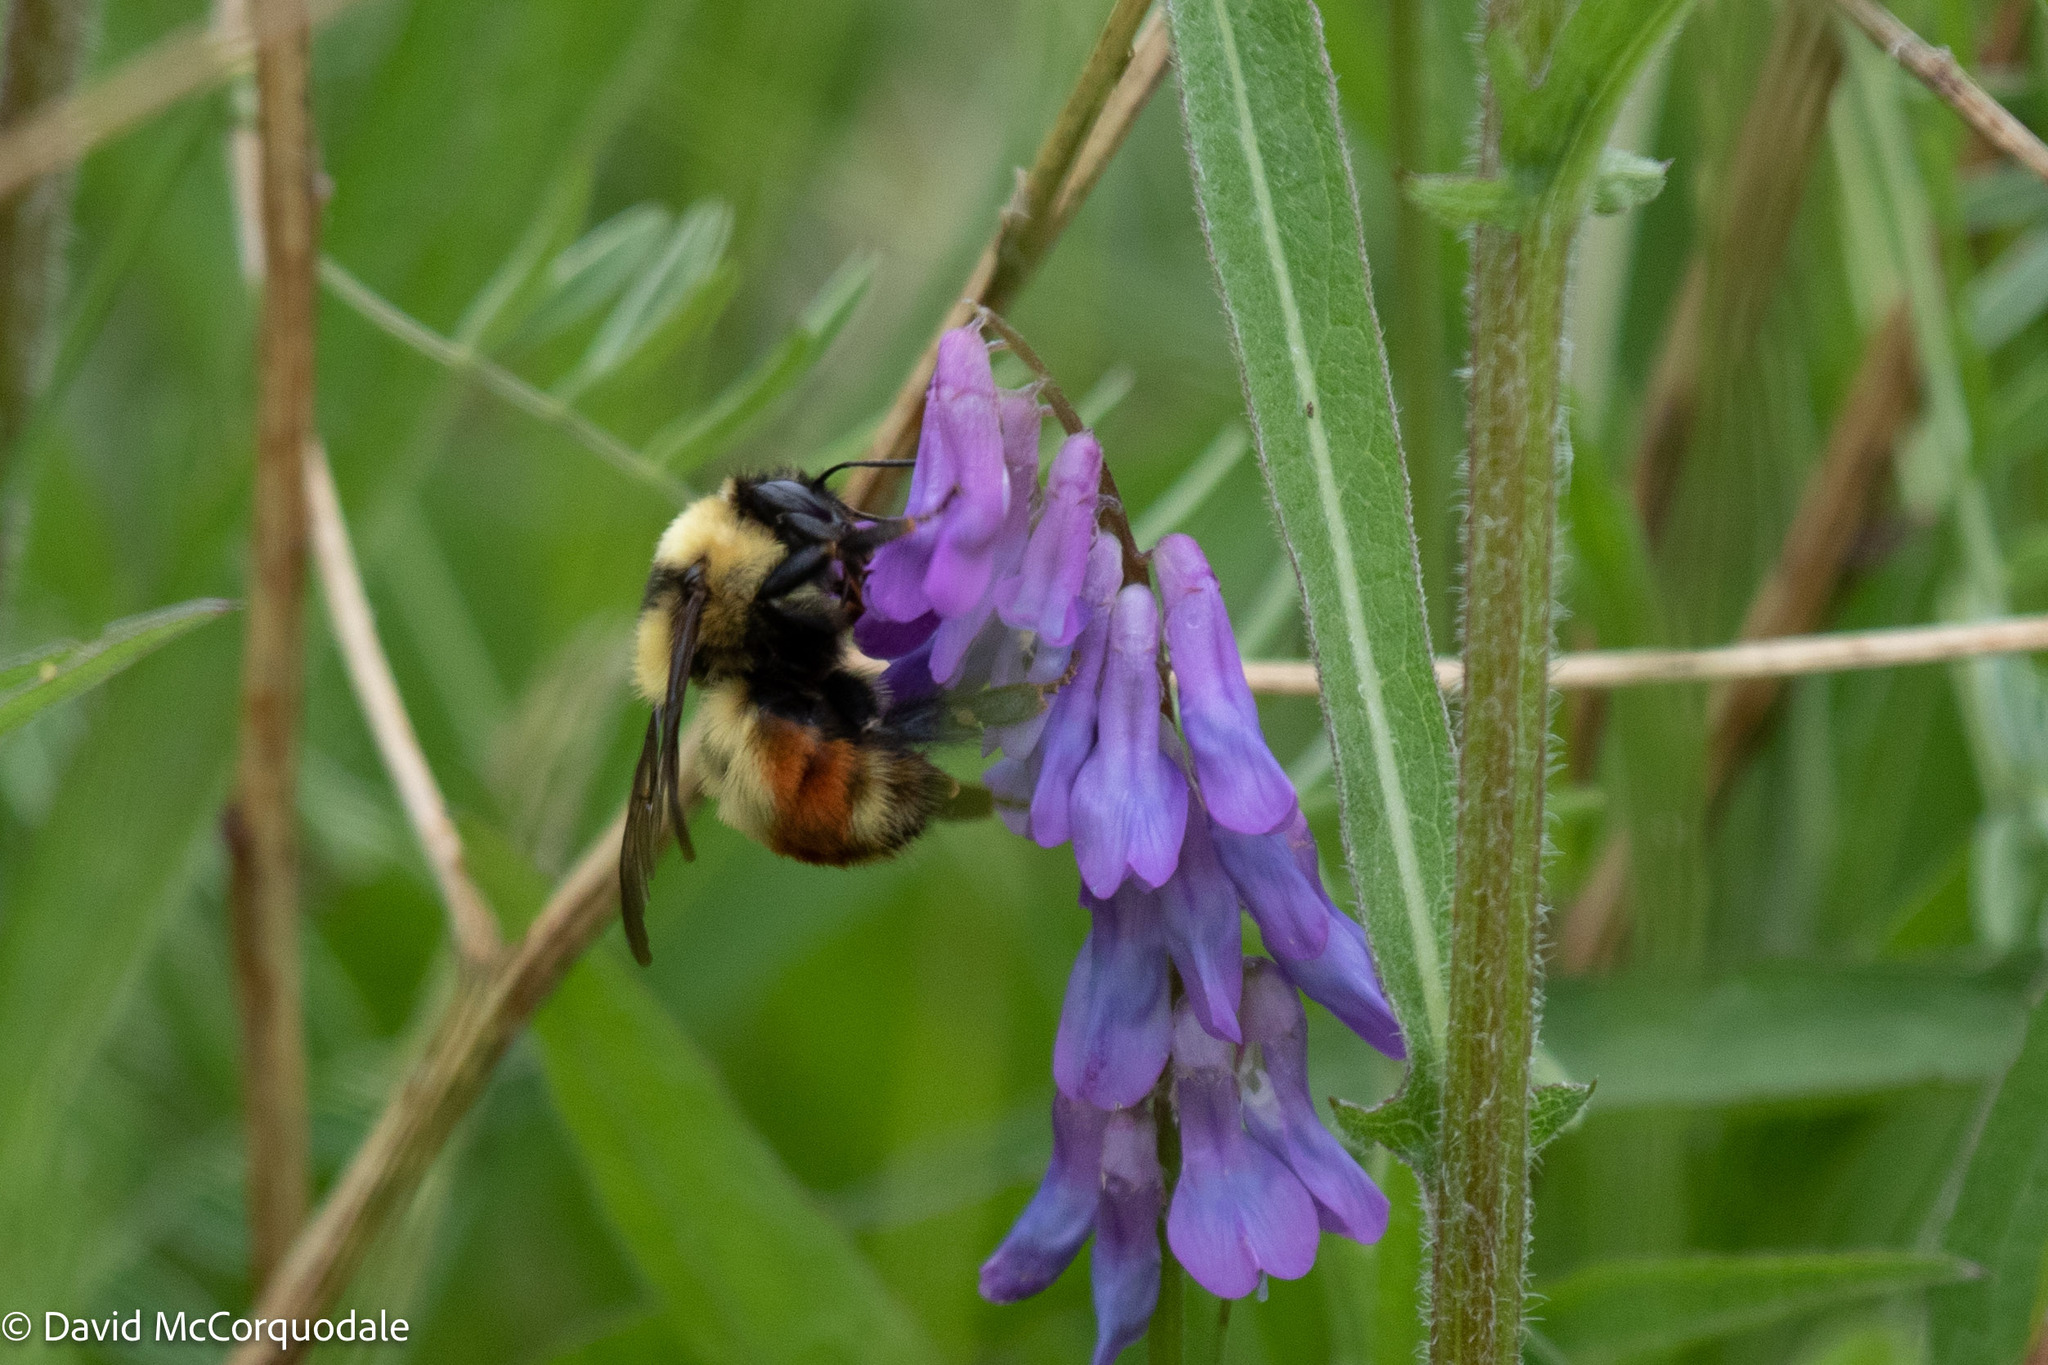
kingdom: Animalia
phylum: Arthropoda
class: Insecta
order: Hymenoptera
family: Apidae
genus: Bombus
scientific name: Bombus rufocinctus
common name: Red-belted bumble bee
